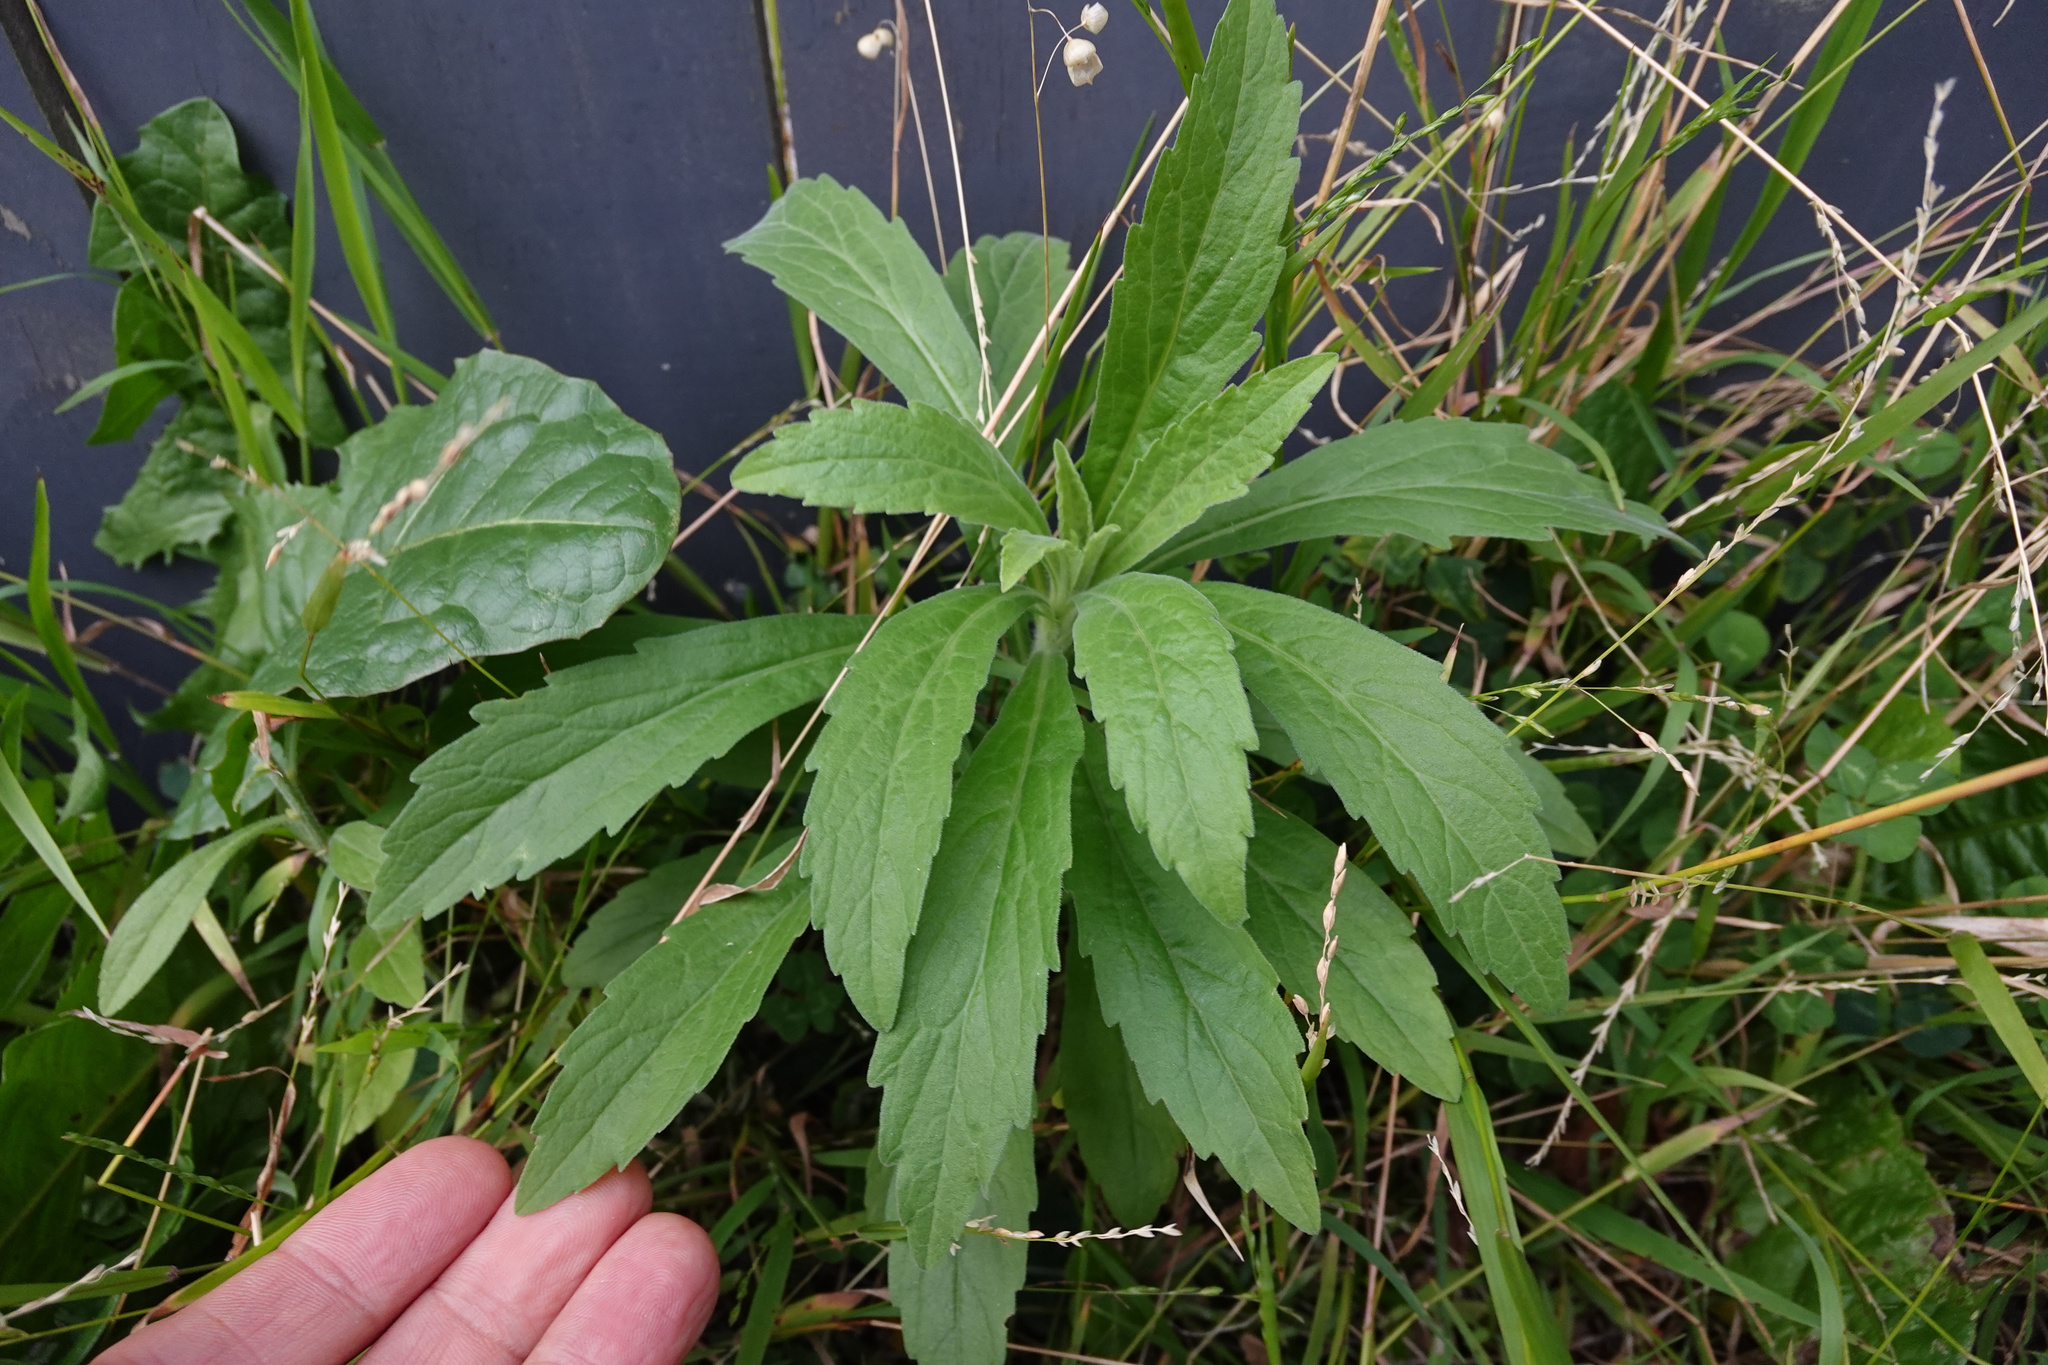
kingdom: Plantae
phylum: Tracheophyta
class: Magnoliopsida
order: Asterales
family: Asteraceae
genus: Erigeron
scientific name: Erigeron sumatrensis
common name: Daisy
